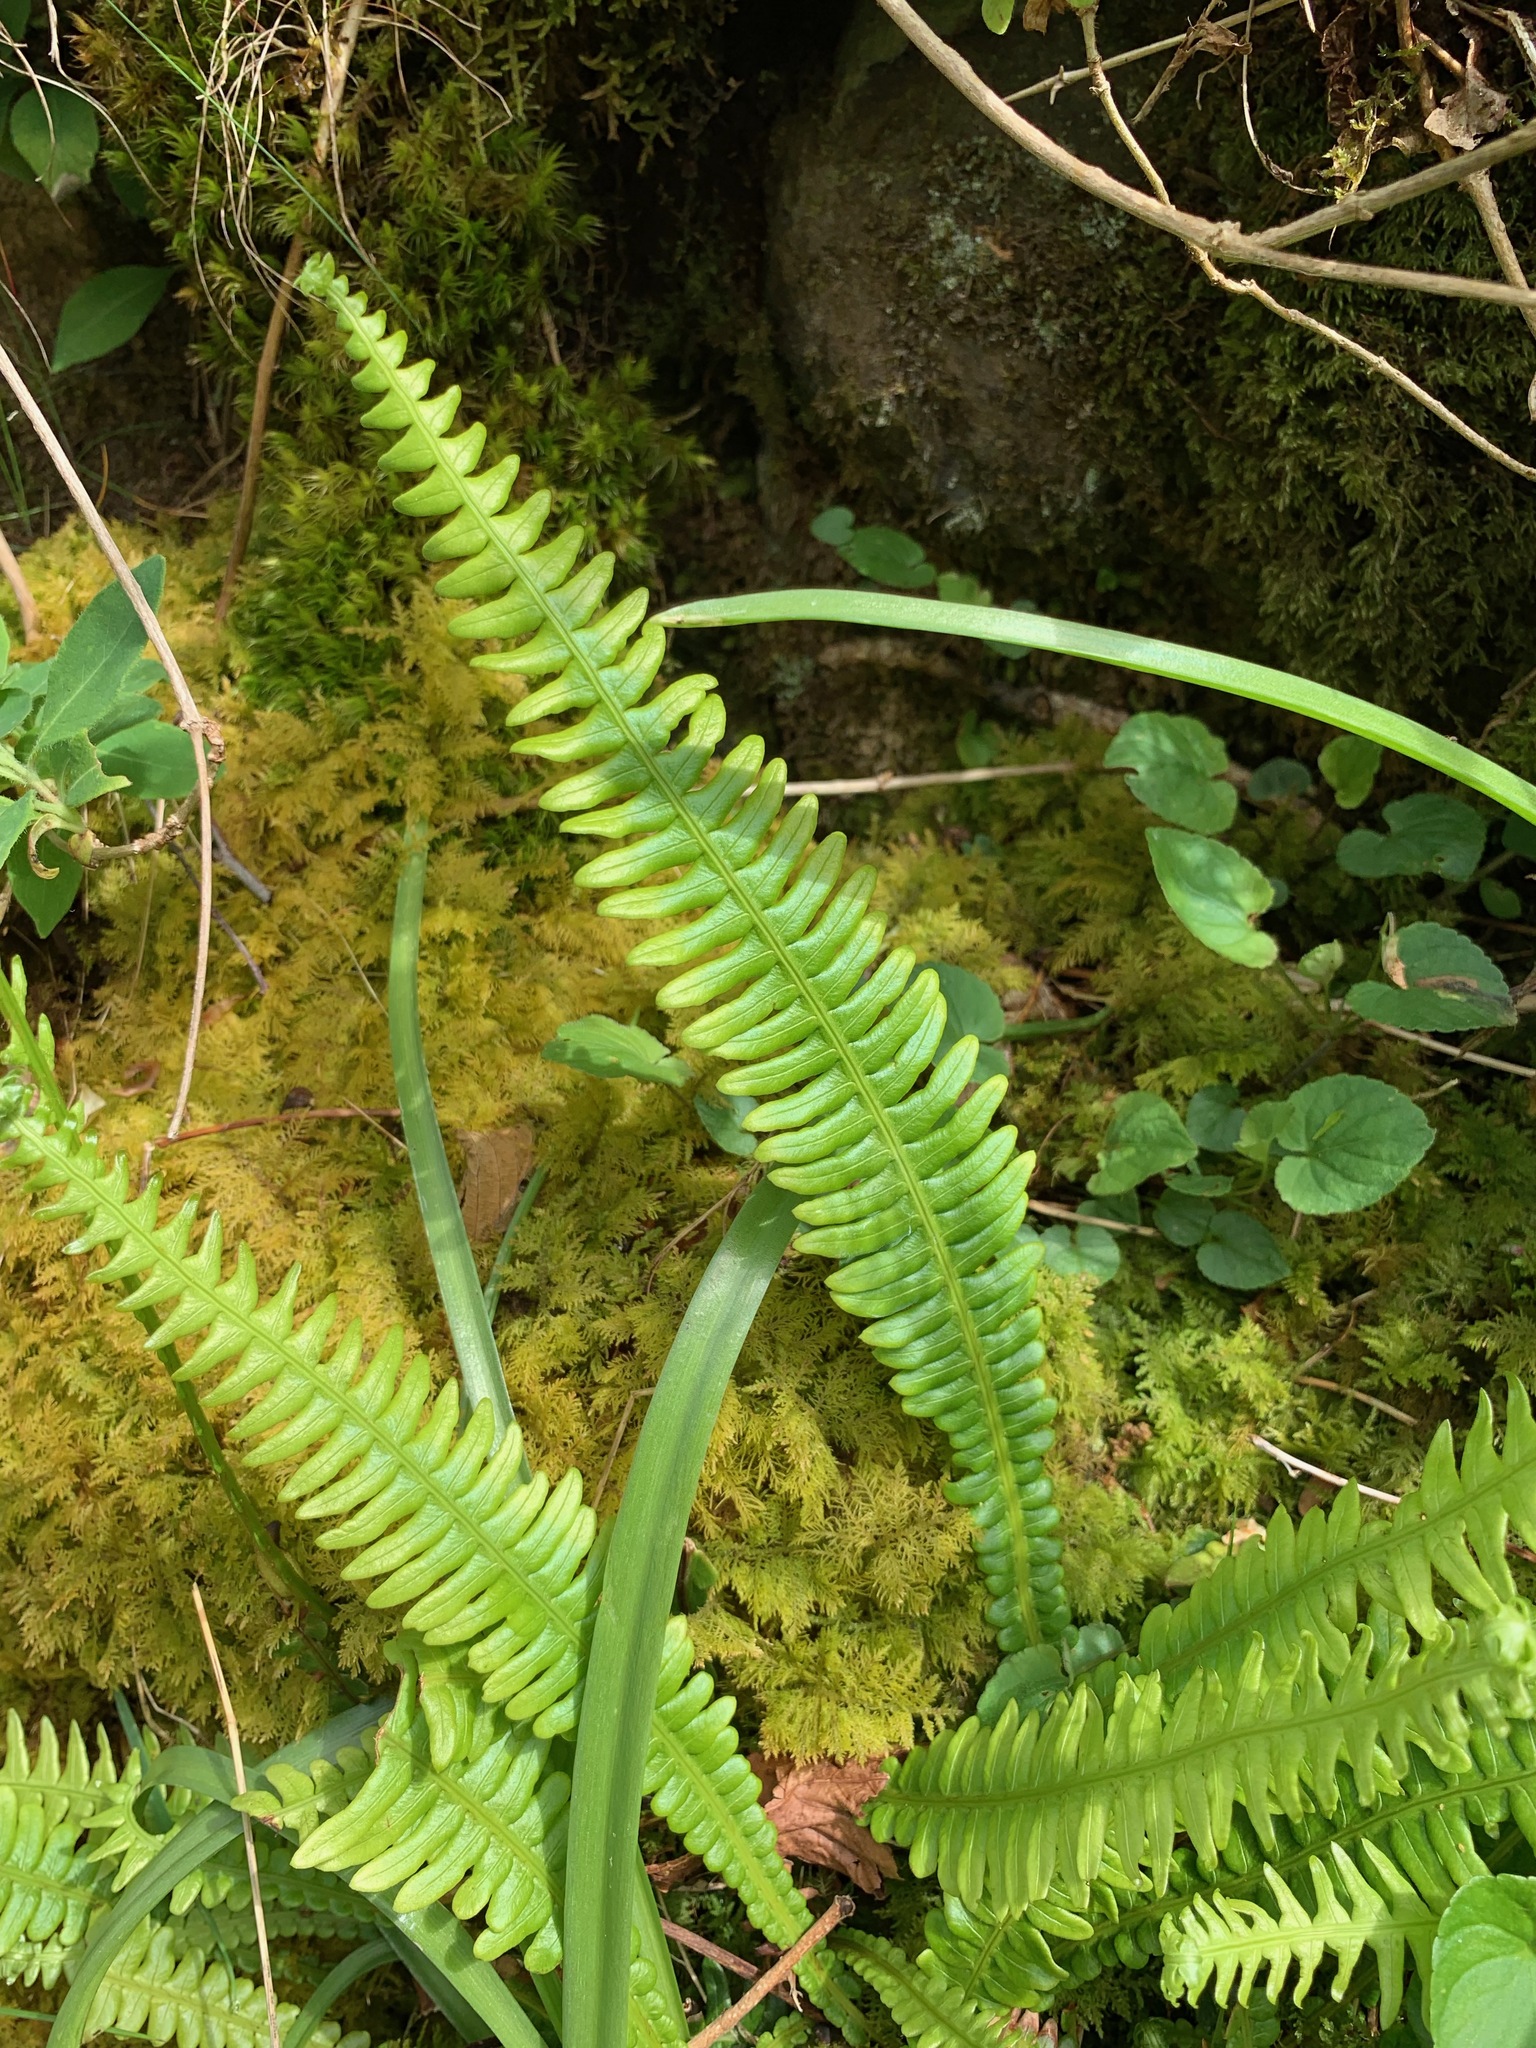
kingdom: Plantae
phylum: Tracheophyta
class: Polypodiopsida
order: Polypodiales
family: Blechnaceae
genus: Struthiopteris
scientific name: Struthiopteris spicant
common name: Deer fern
